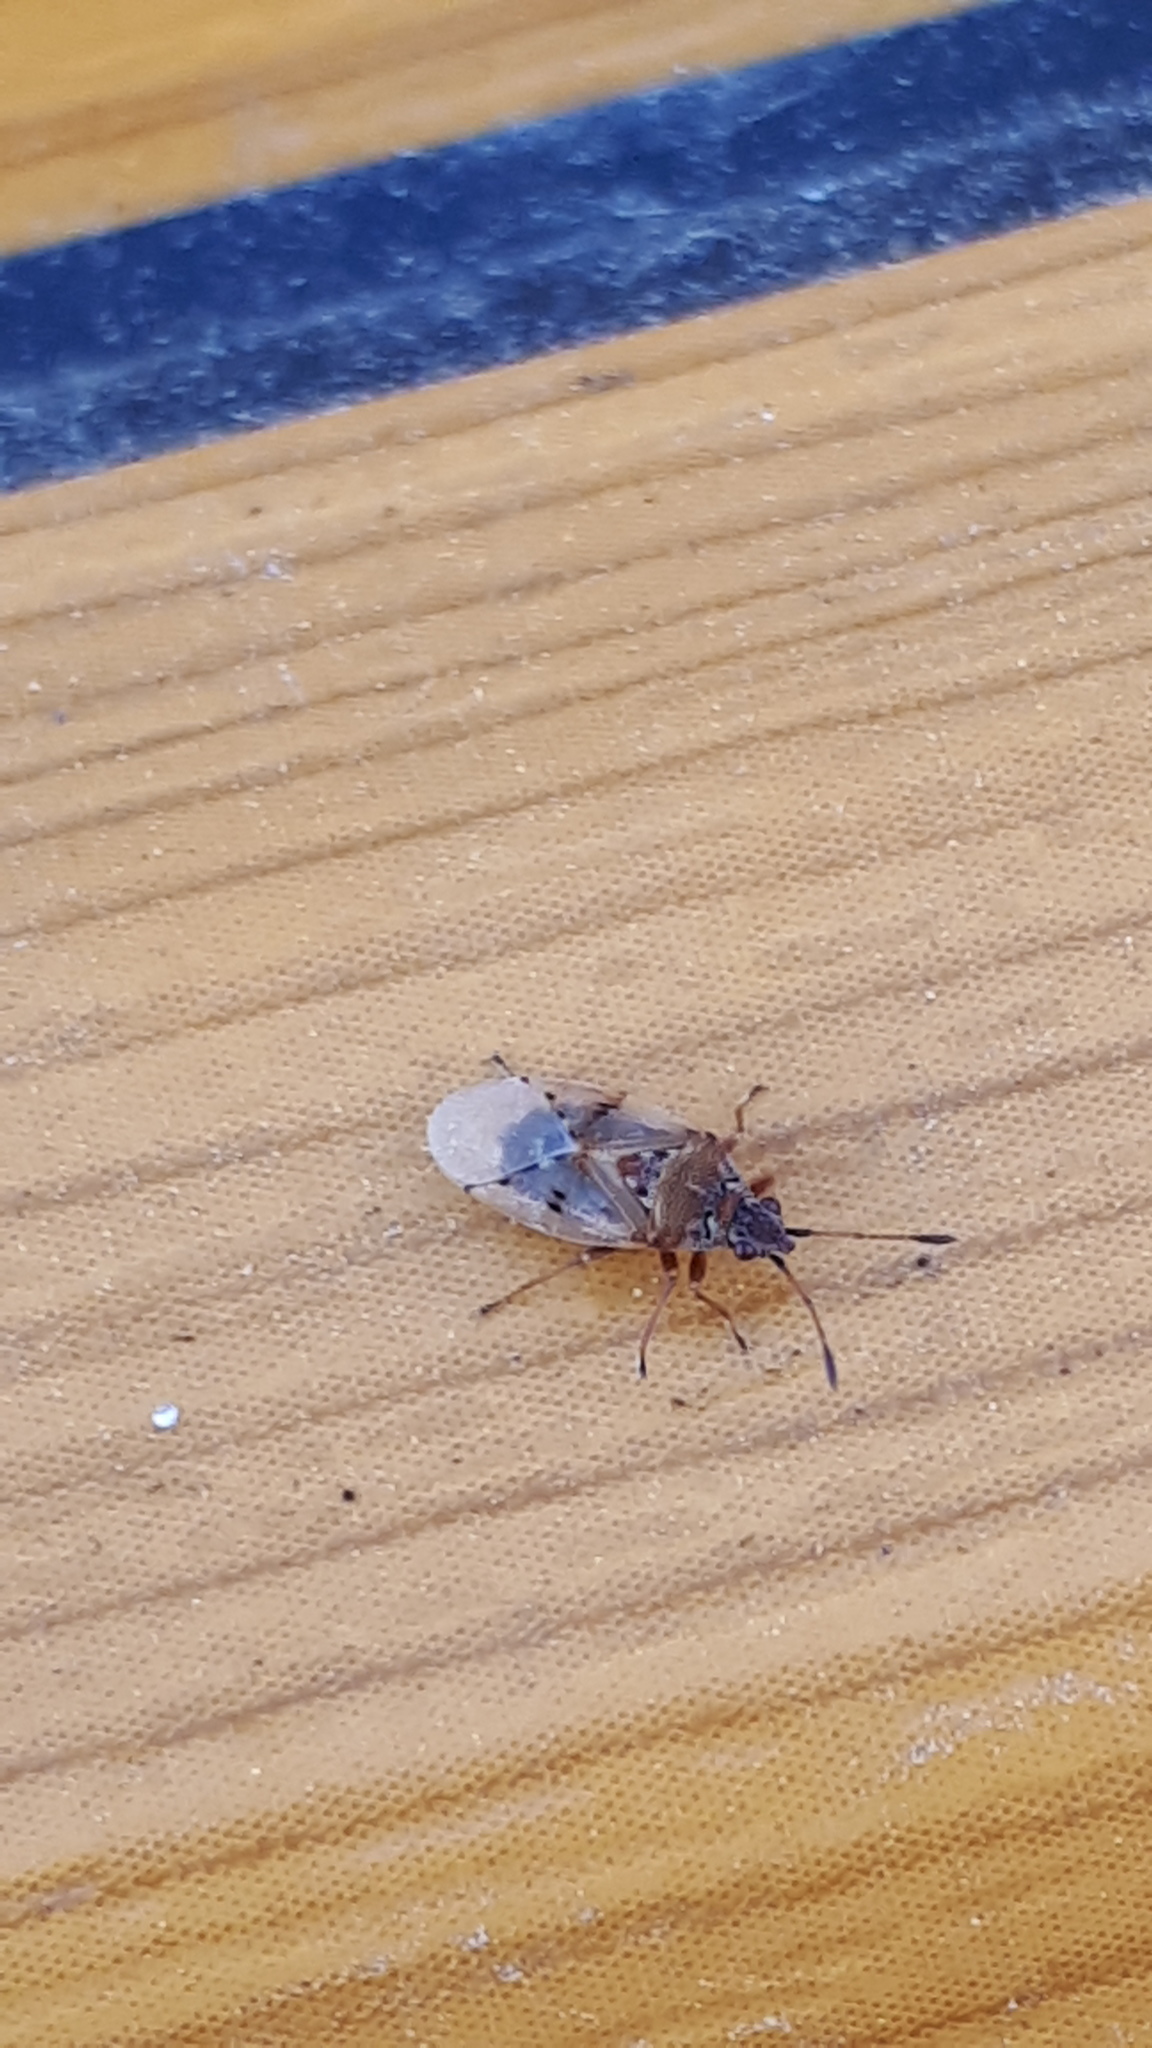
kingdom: Animalia
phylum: Arthropoda
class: Insecta
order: Hemiptera
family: Lygaeidae
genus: Kleidocerys
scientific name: Kleidocerys resedae
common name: Birch catkin bug
